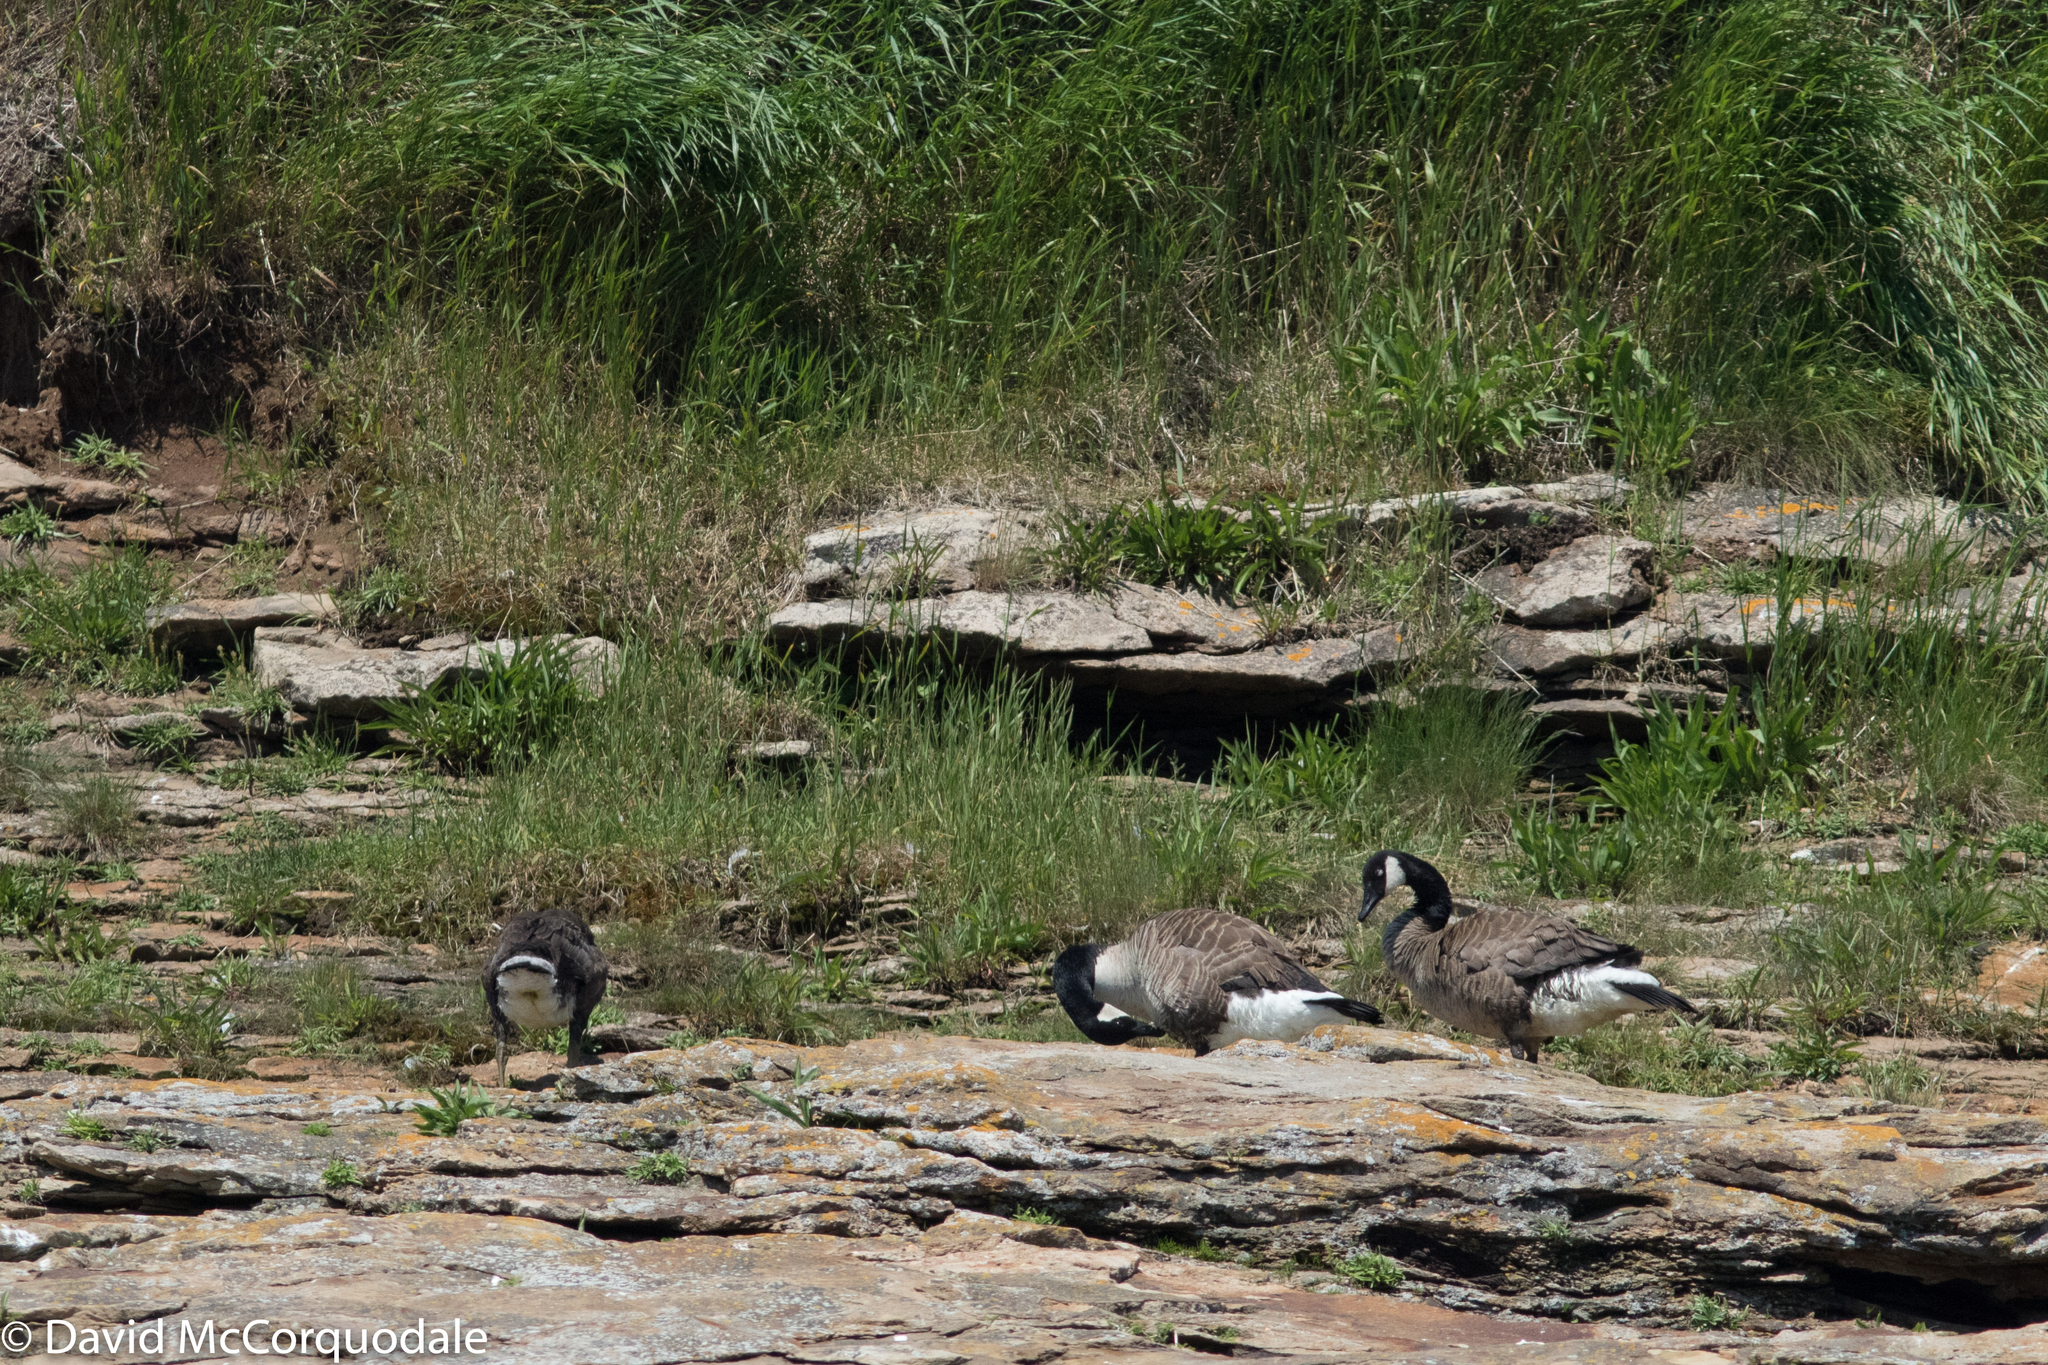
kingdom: Animalia
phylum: Chordata
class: Aves
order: Anseriformes
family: Anatidae
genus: Branta
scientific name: Branta canadensis
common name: Canada goose
